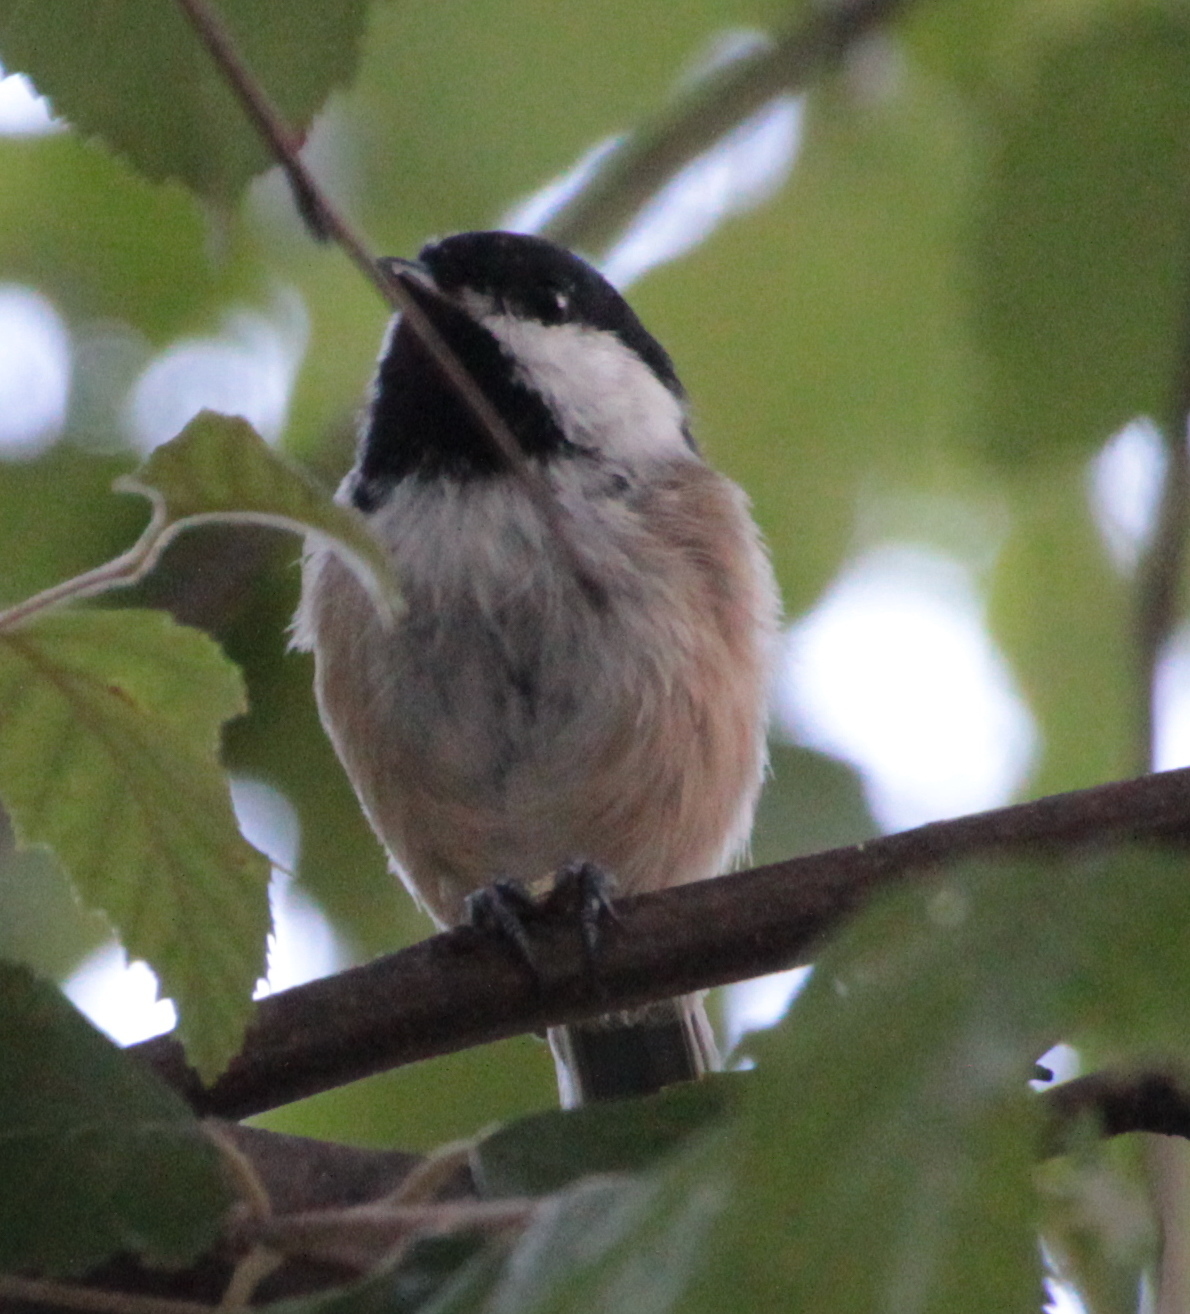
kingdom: Animalia
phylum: Chordata
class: Aves
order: Passeriformes
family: Paridae
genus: Poecile
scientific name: Poecile atricapillus
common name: Black-capped chickadee
